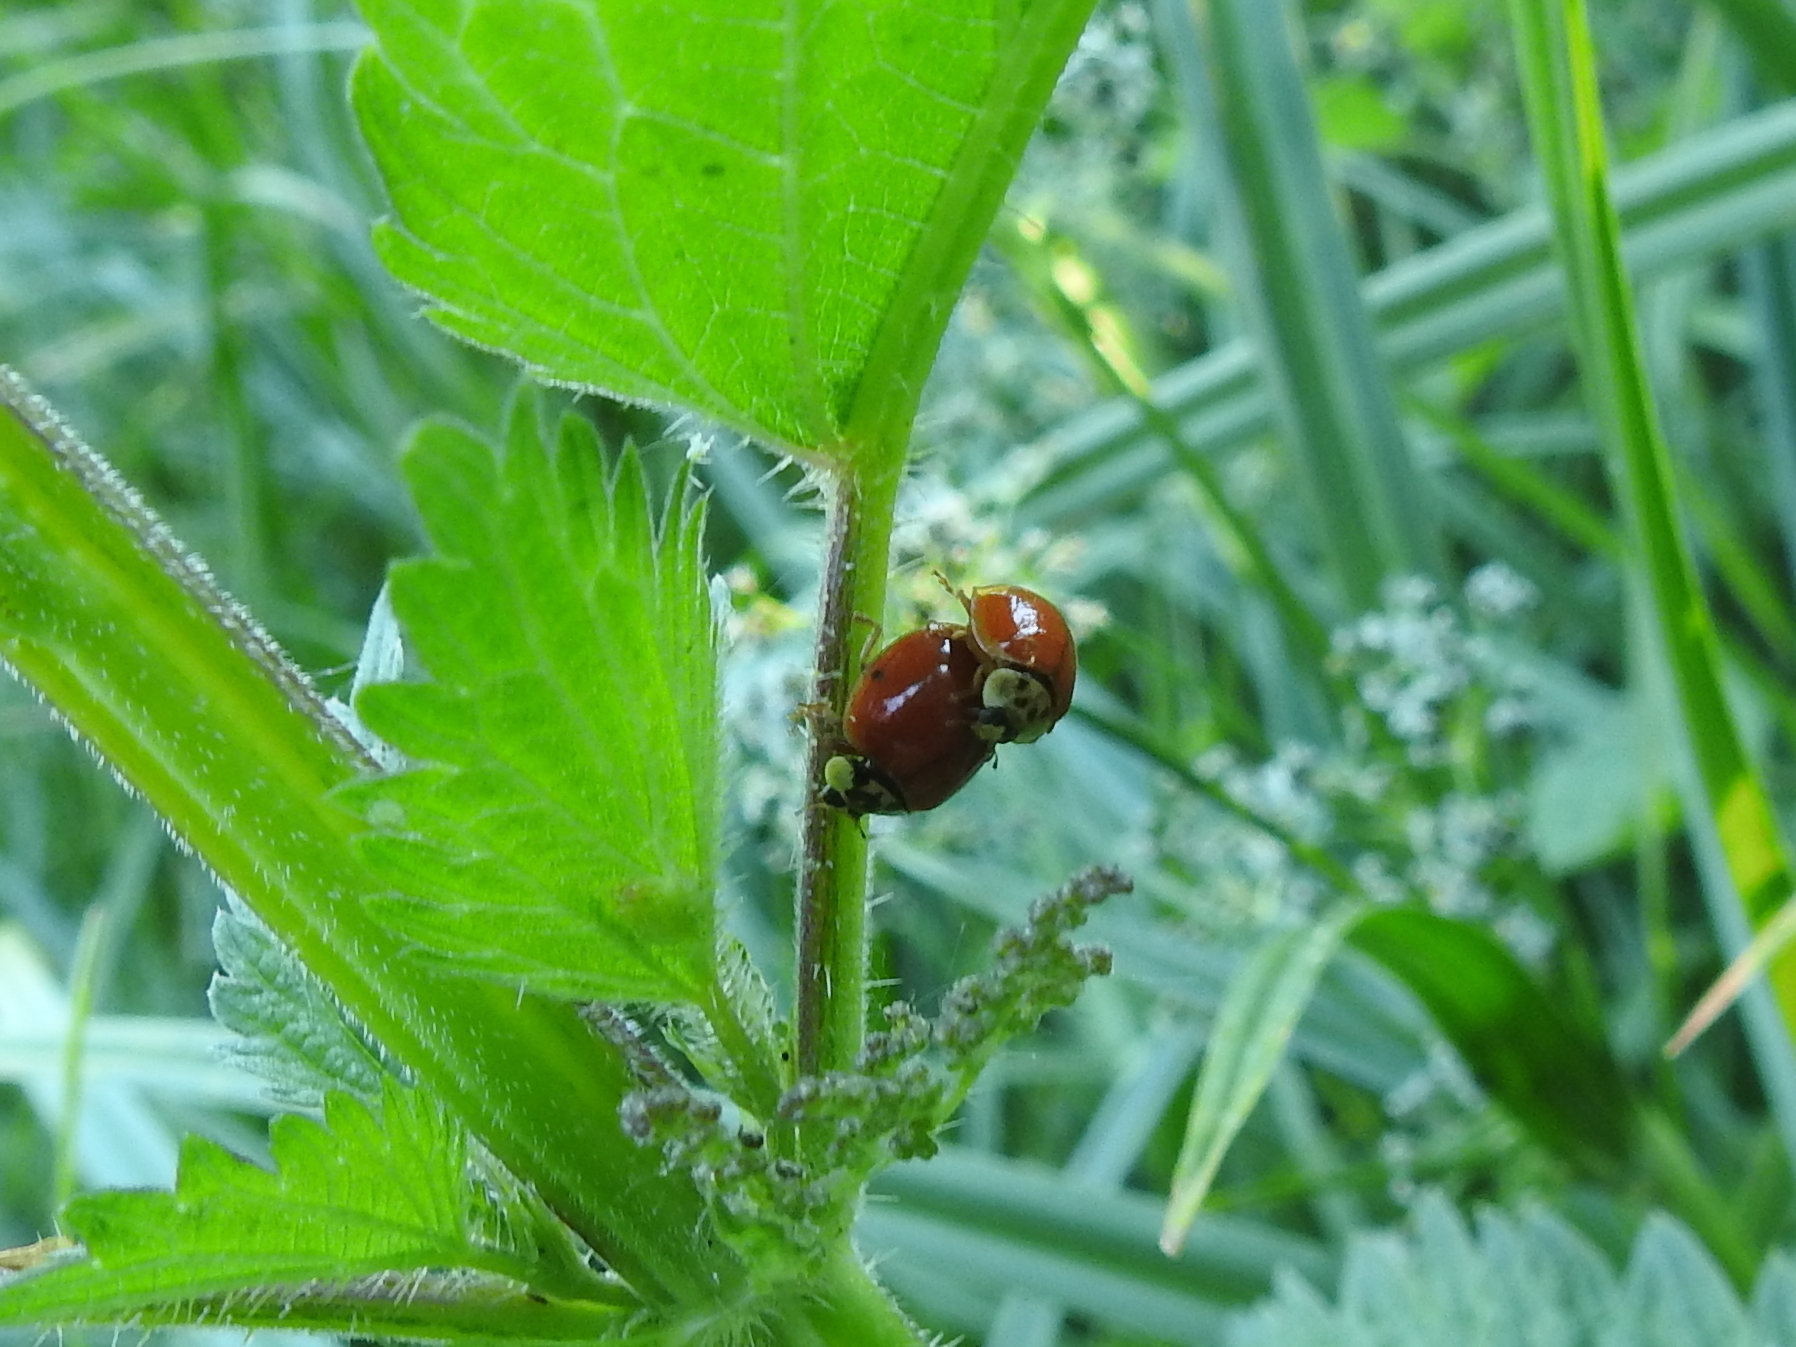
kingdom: Animalia
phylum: Arthropoda
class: Insecta
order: Coleoptera
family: Coccinellidae
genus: Harmonia
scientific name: Harmonia axyridis
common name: Harlequin ladybird
